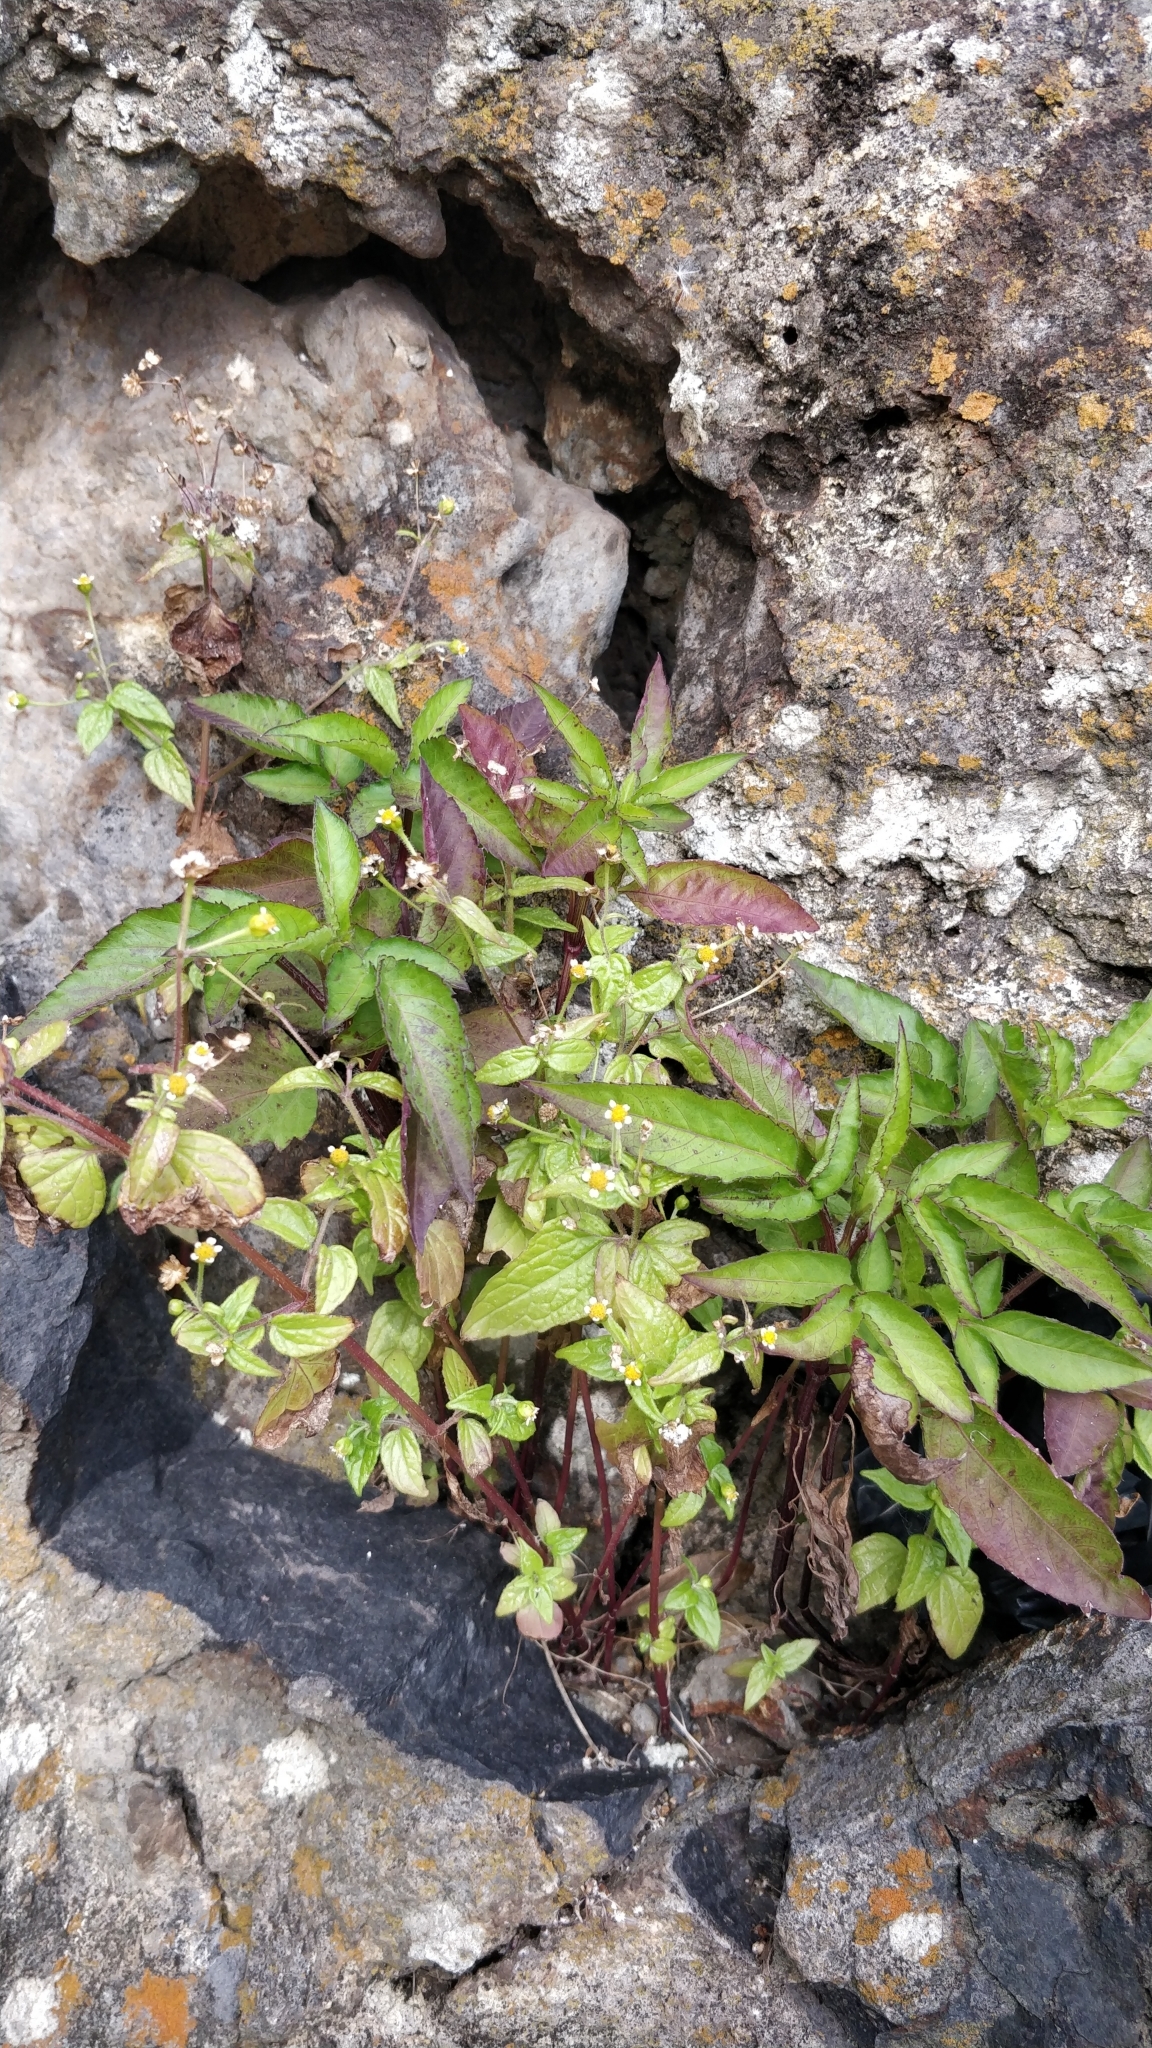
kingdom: Plantae
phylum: Tracheophyta
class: Magnoliopsida
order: Asterales
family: Asteraceae
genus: Galinsoga
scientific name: Galinsoga quadriradiata
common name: Shaggy soldier
